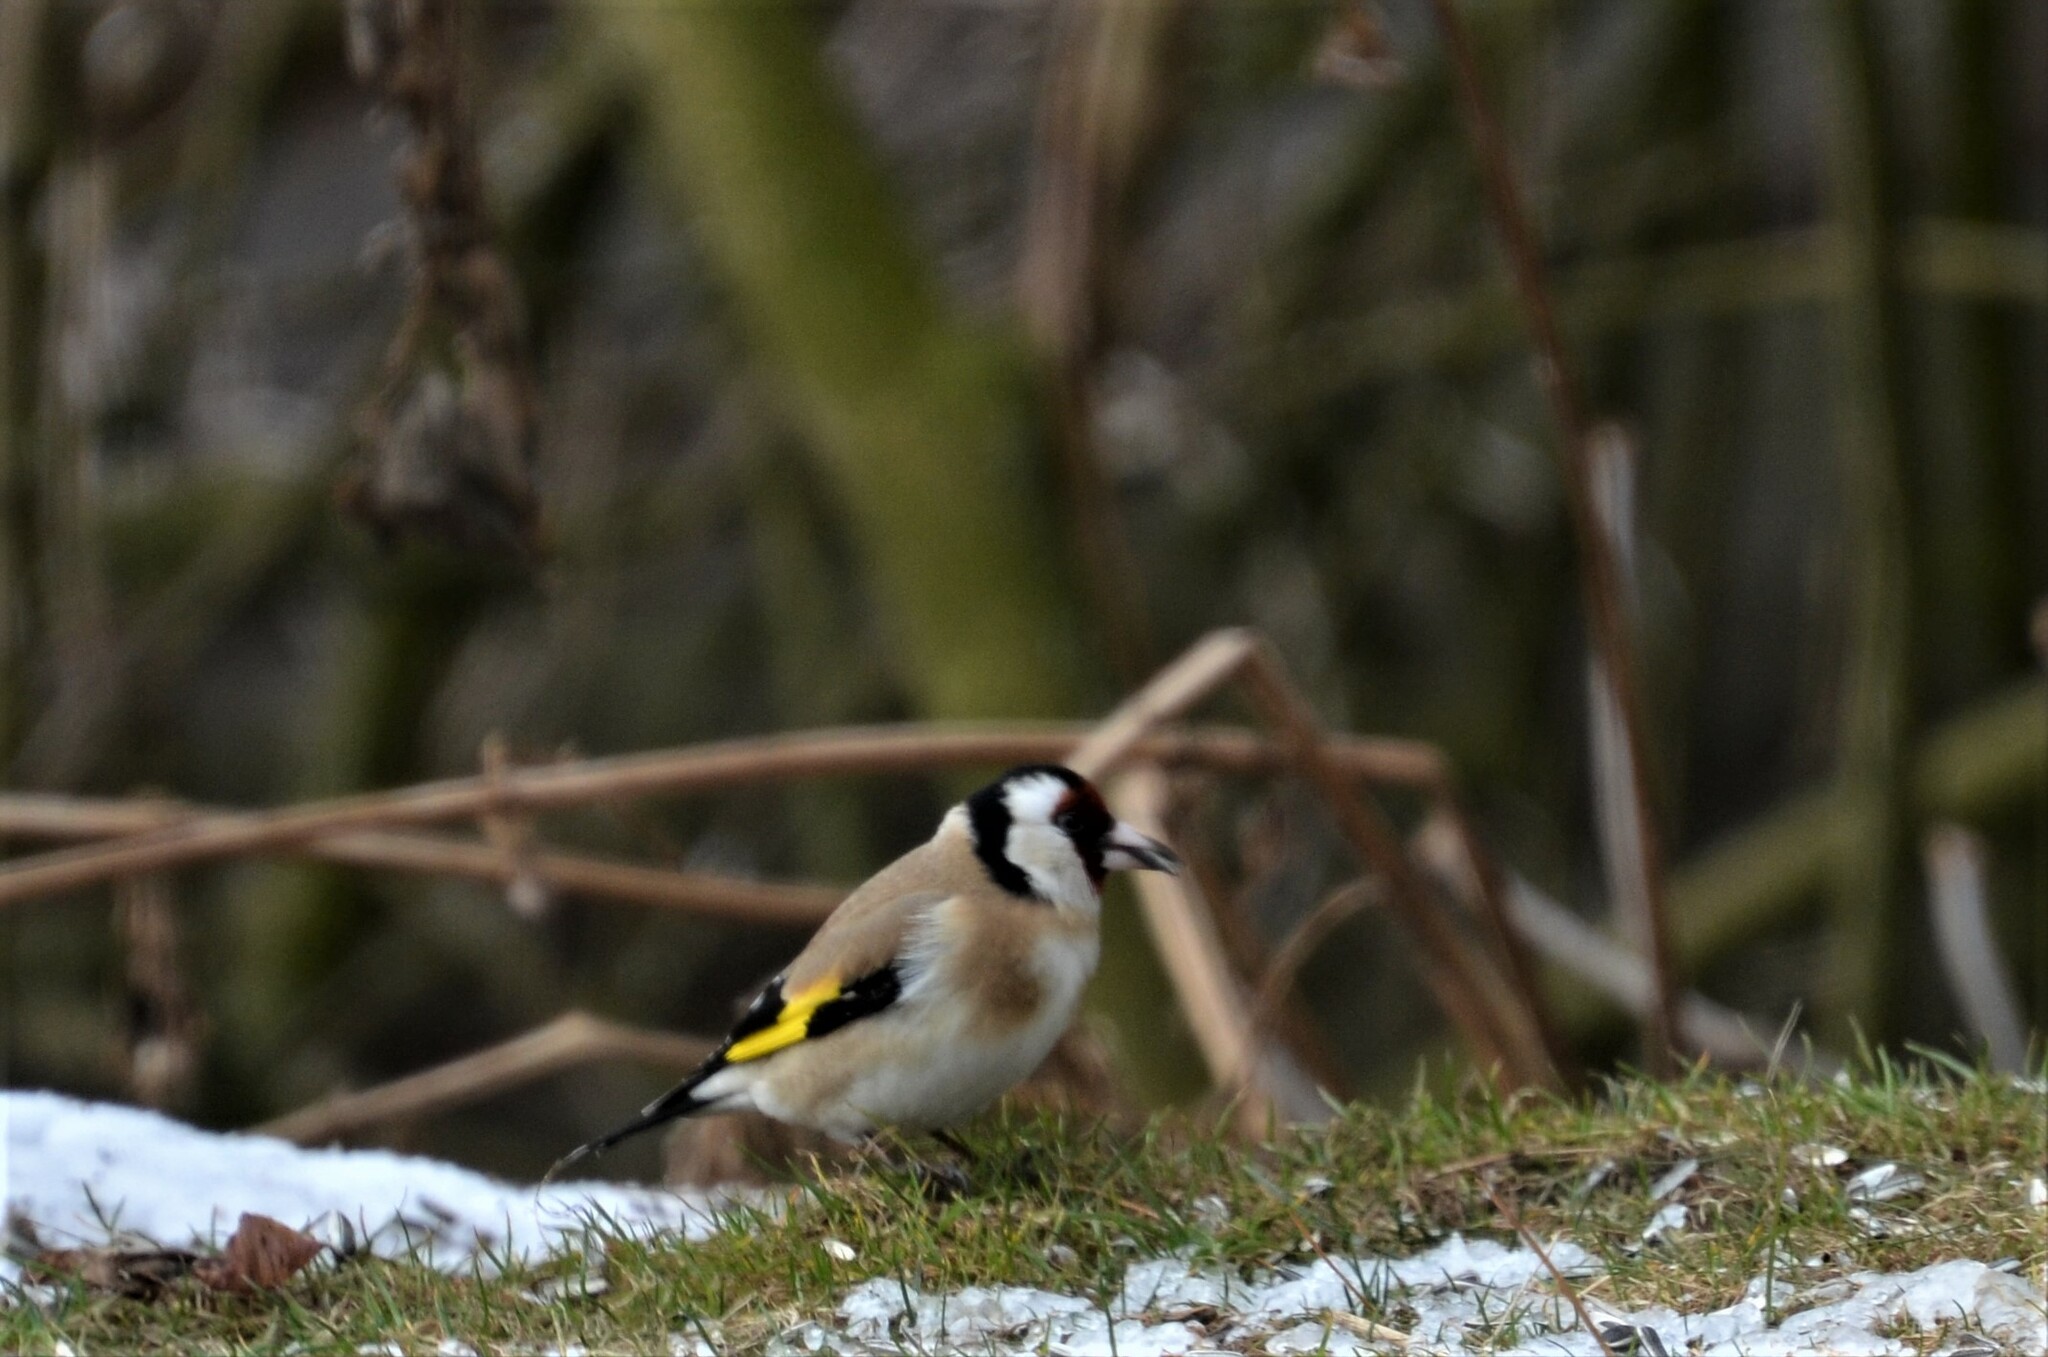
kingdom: Animalia
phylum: Chordata
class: Aves
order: Passeriformes
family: Fringillidae
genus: Carduelis
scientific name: Carduelis carduelis
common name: European goldfinch
